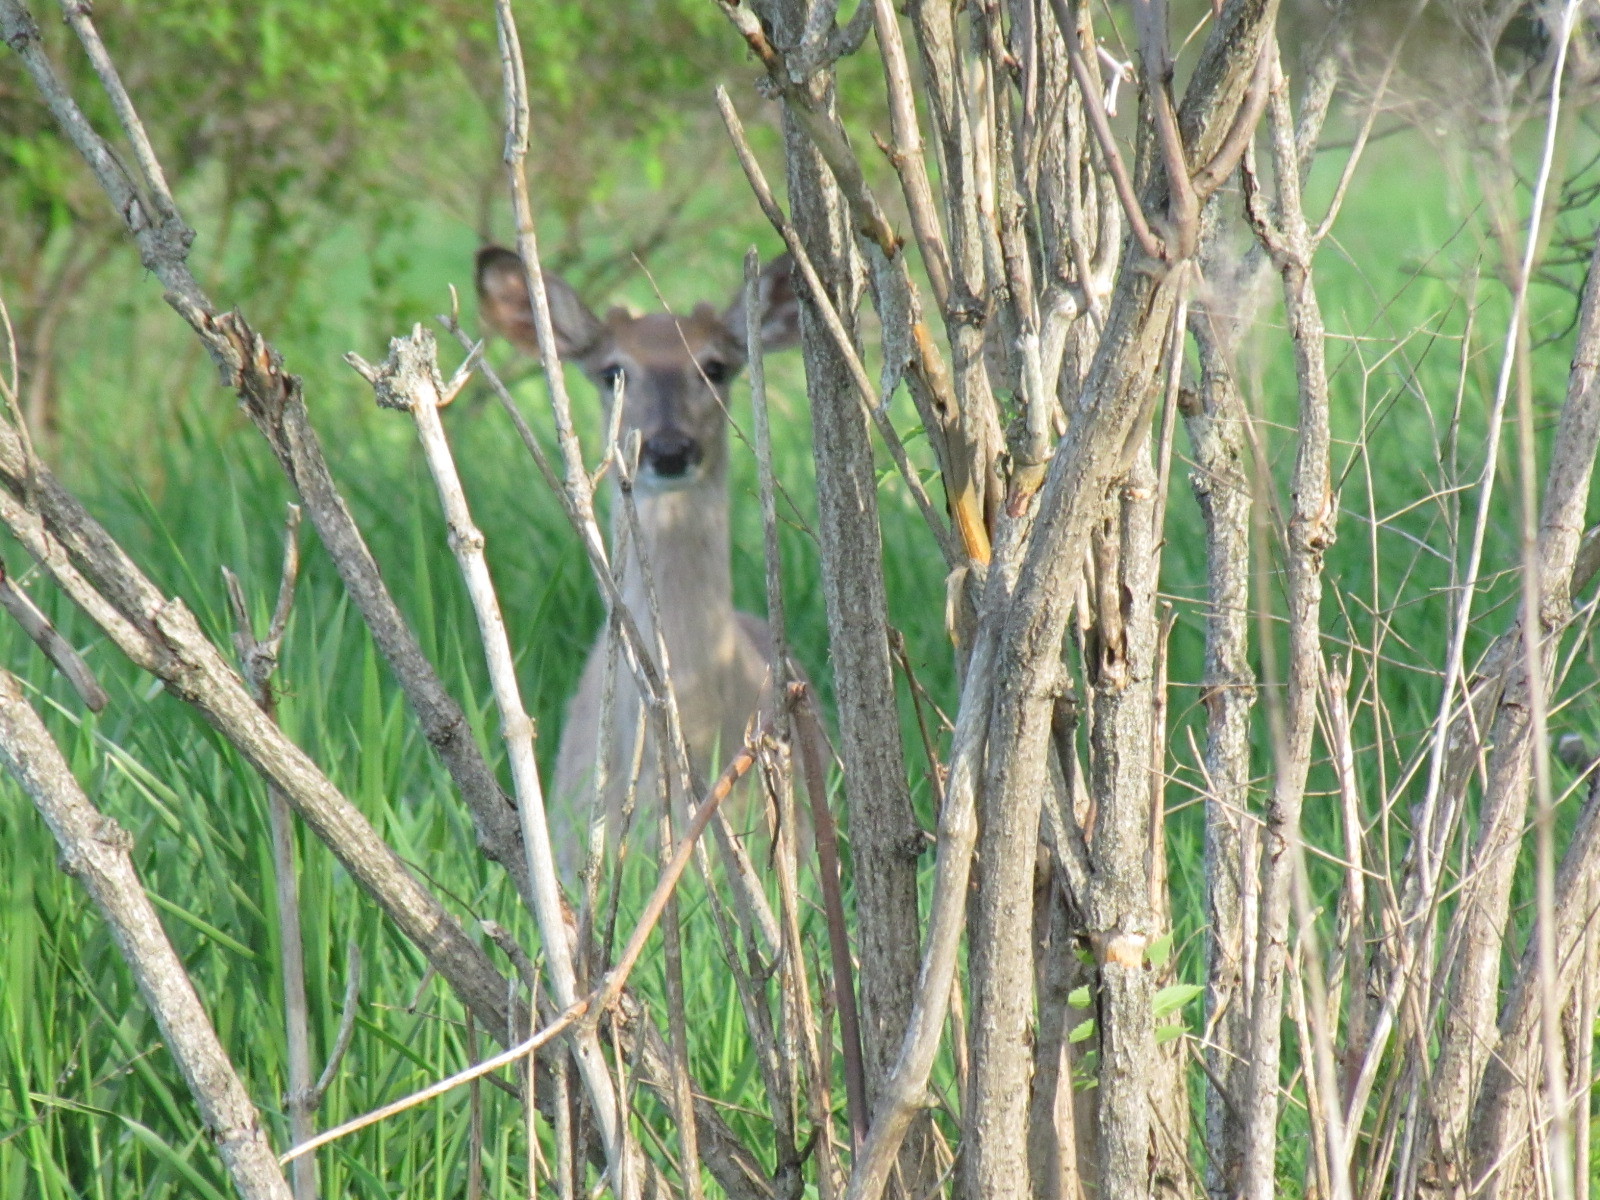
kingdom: Animalia
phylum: Chordata
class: Mammalia
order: Artiodactyla
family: Cervidae
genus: Odocoileus
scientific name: Odocoileus virginianus
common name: White-tailed deer
